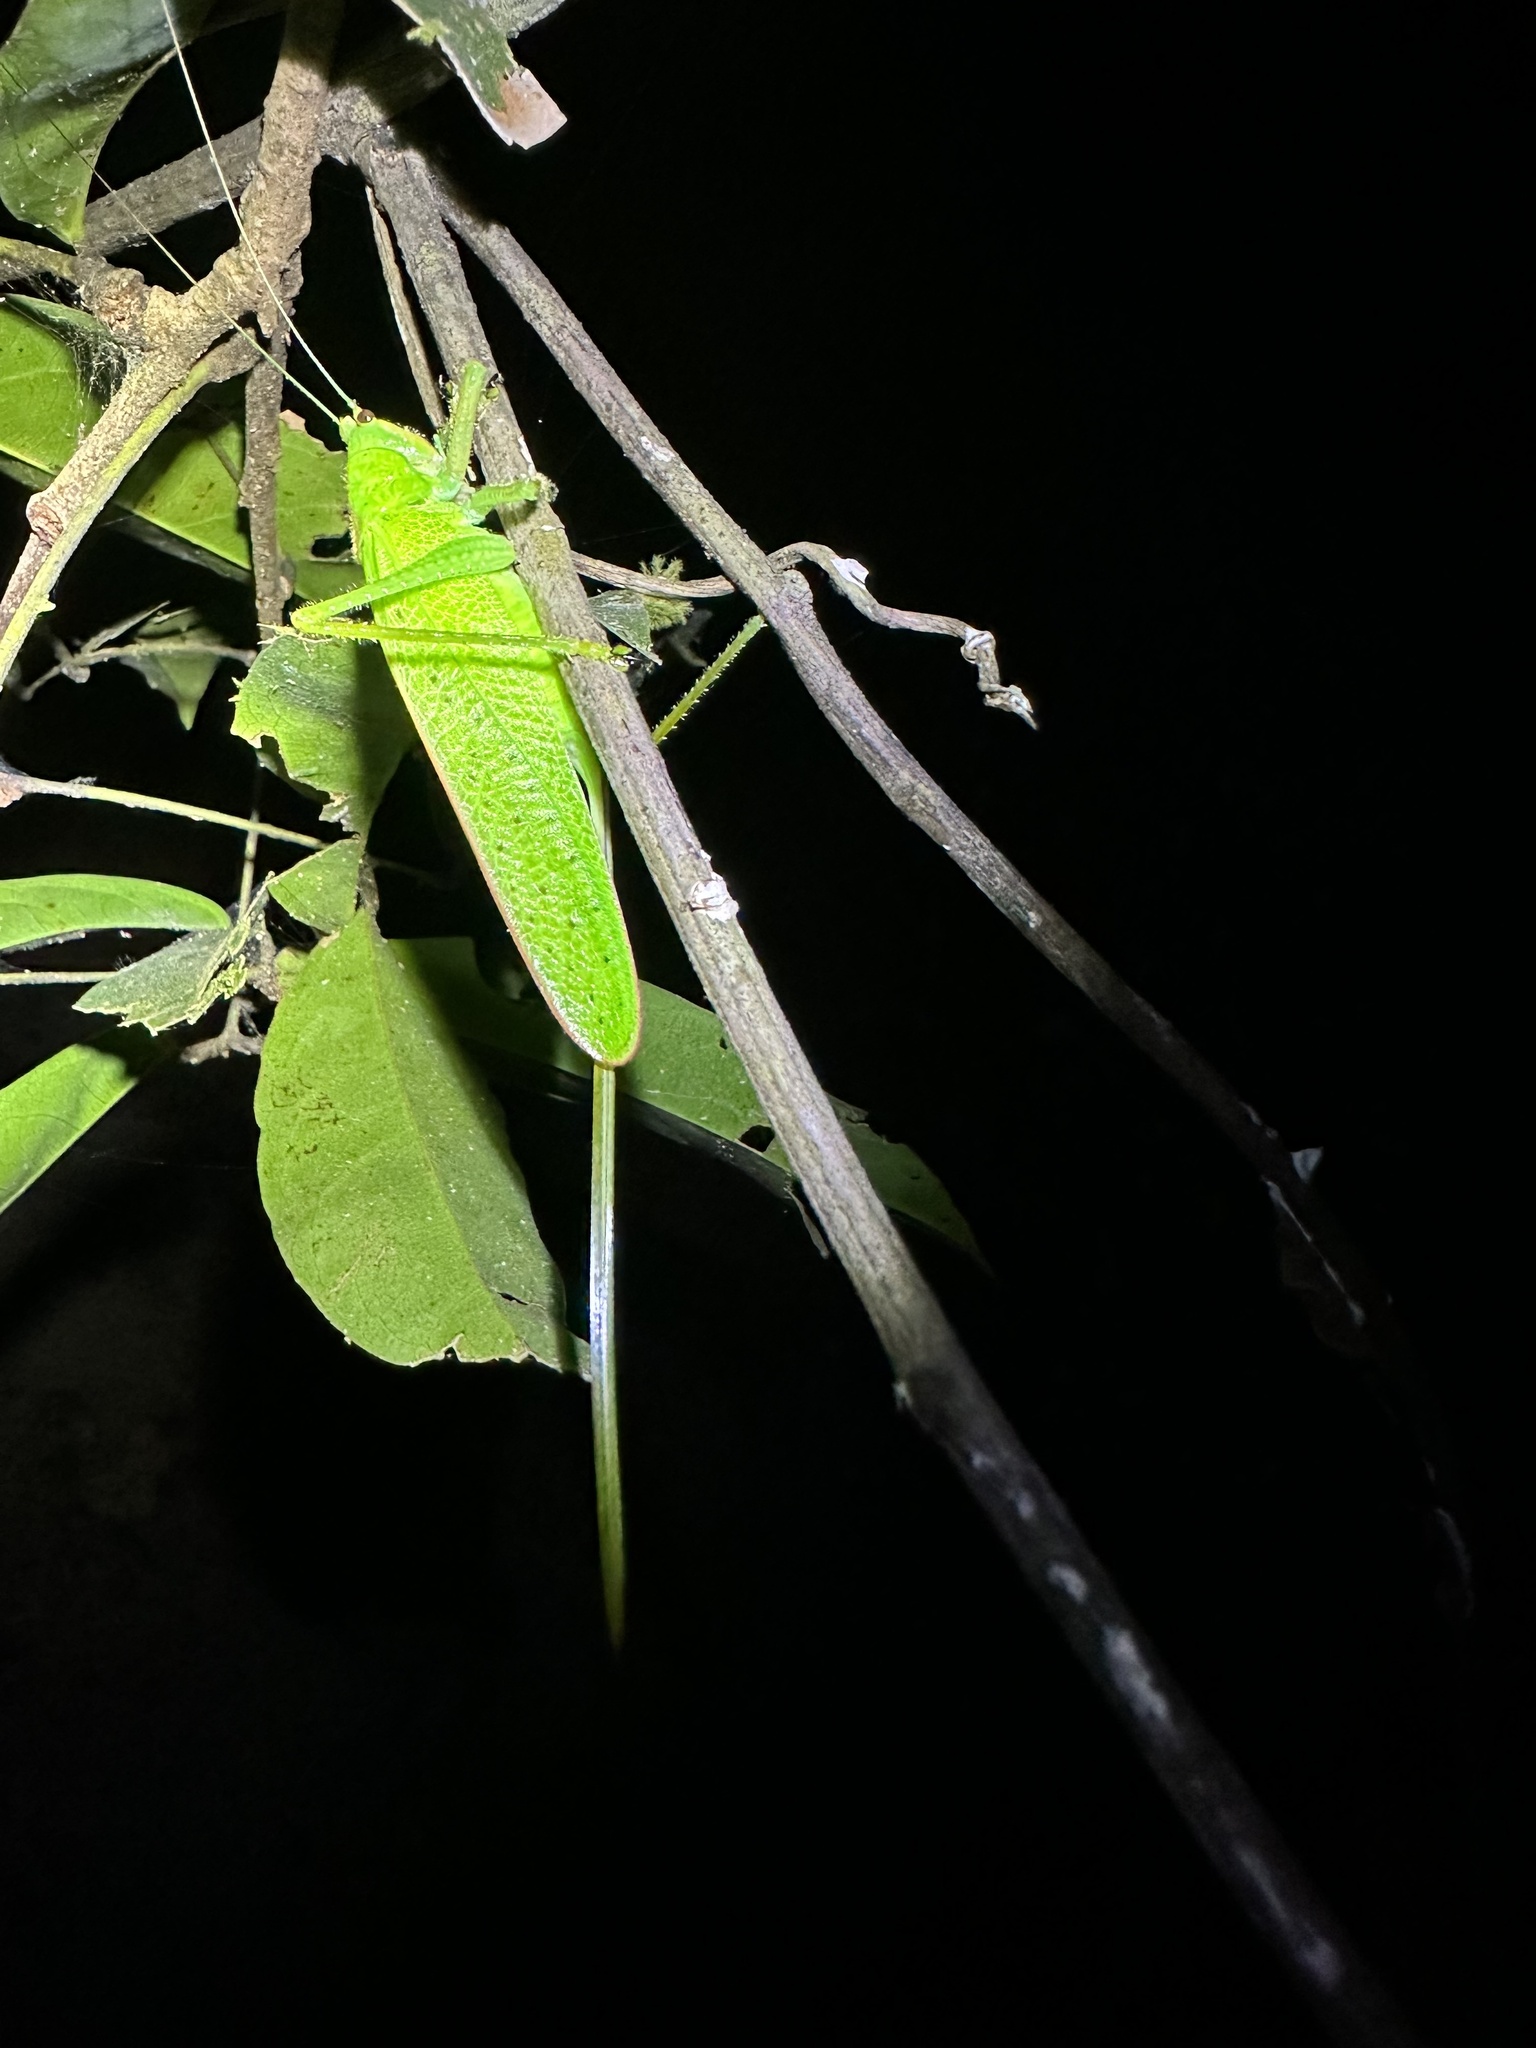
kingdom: Animalia
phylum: Arthropoda
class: Insecta
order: Orthoptera
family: Tettigoniidae
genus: Copiphora
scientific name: Copiphora brevirostris
